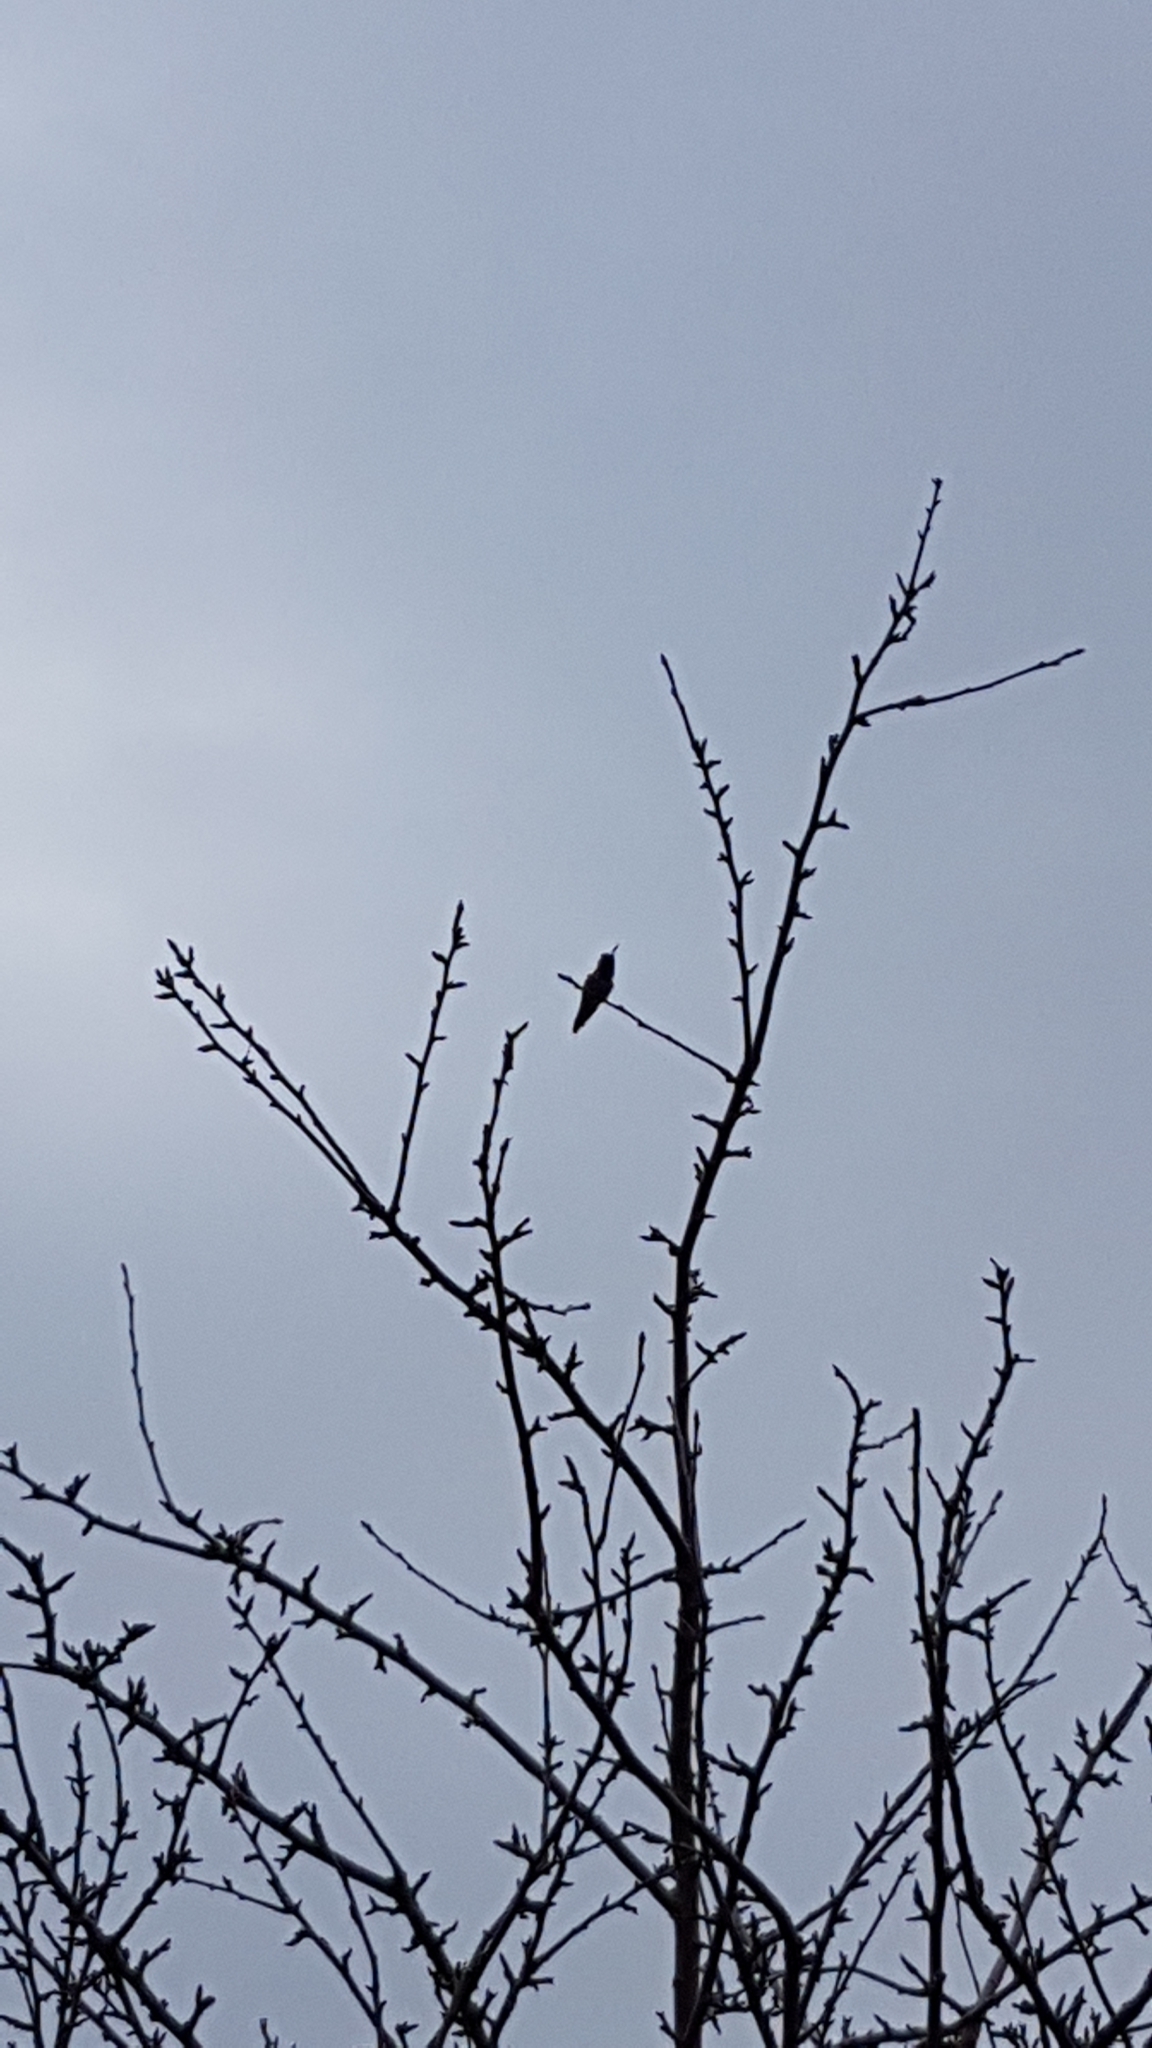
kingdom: Animalia
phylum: Chordata
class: Aves
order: Apodiformes
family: Trochilidae
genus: Calypte
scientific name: Calypte anna
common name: Anna's hummingbird
